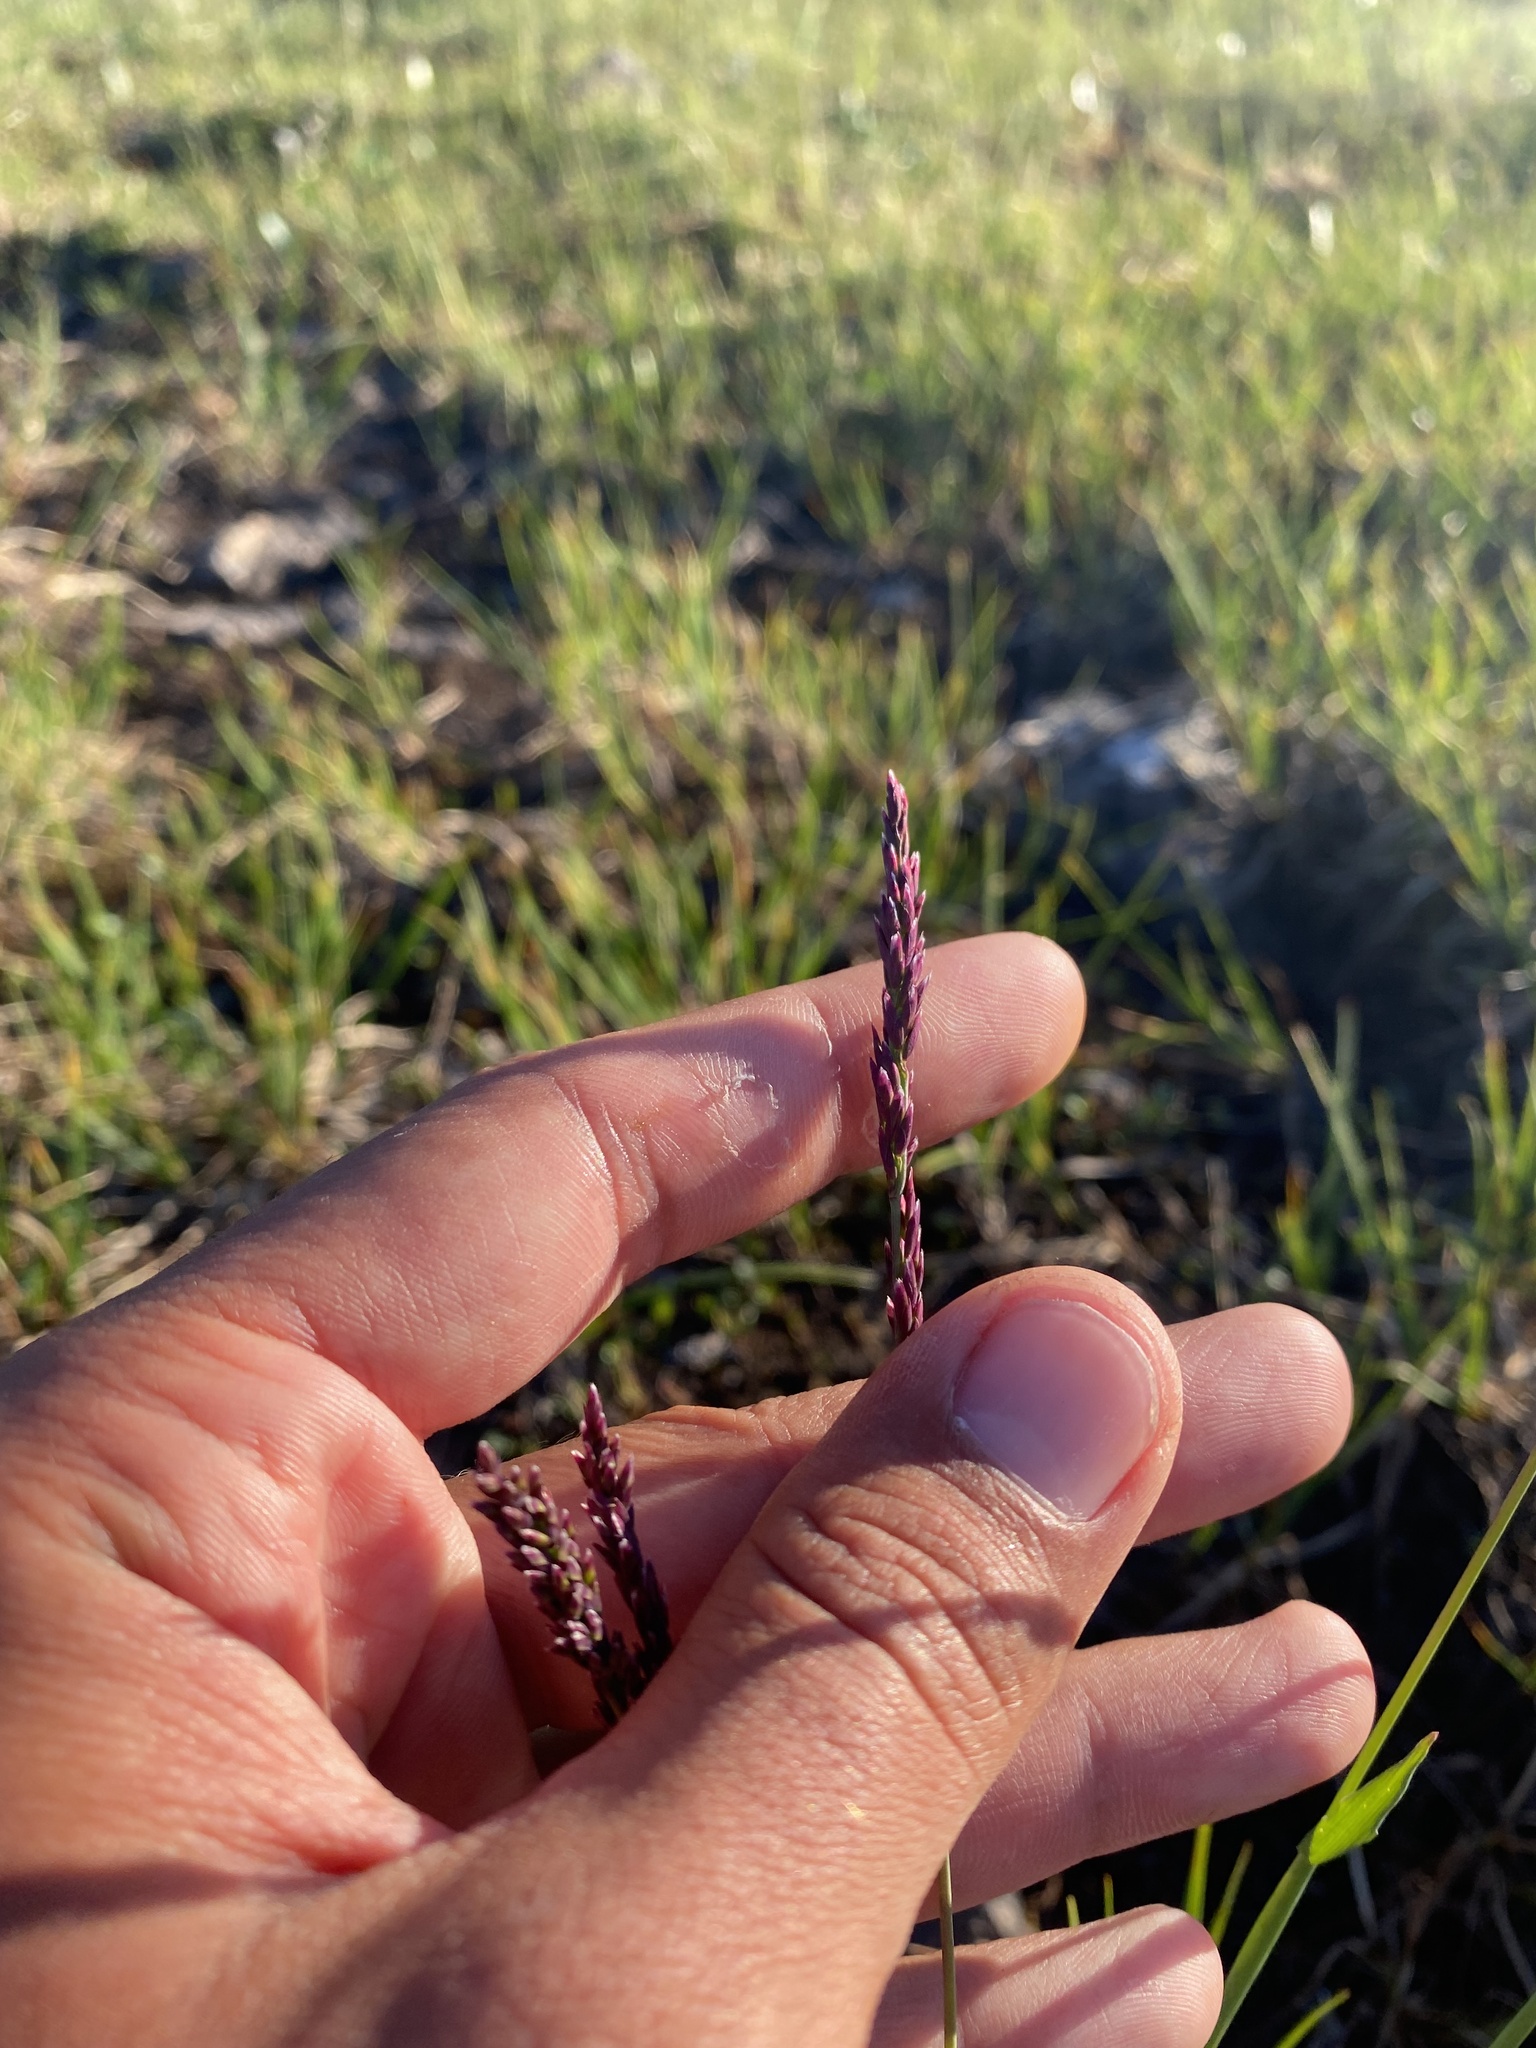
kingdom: Plantae
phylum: Tracheophyta
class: Liliopsida
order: Poales
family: Poaceae
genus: Arctagrostis
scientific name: Arctagrostis latifolia
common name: Arctic grass
